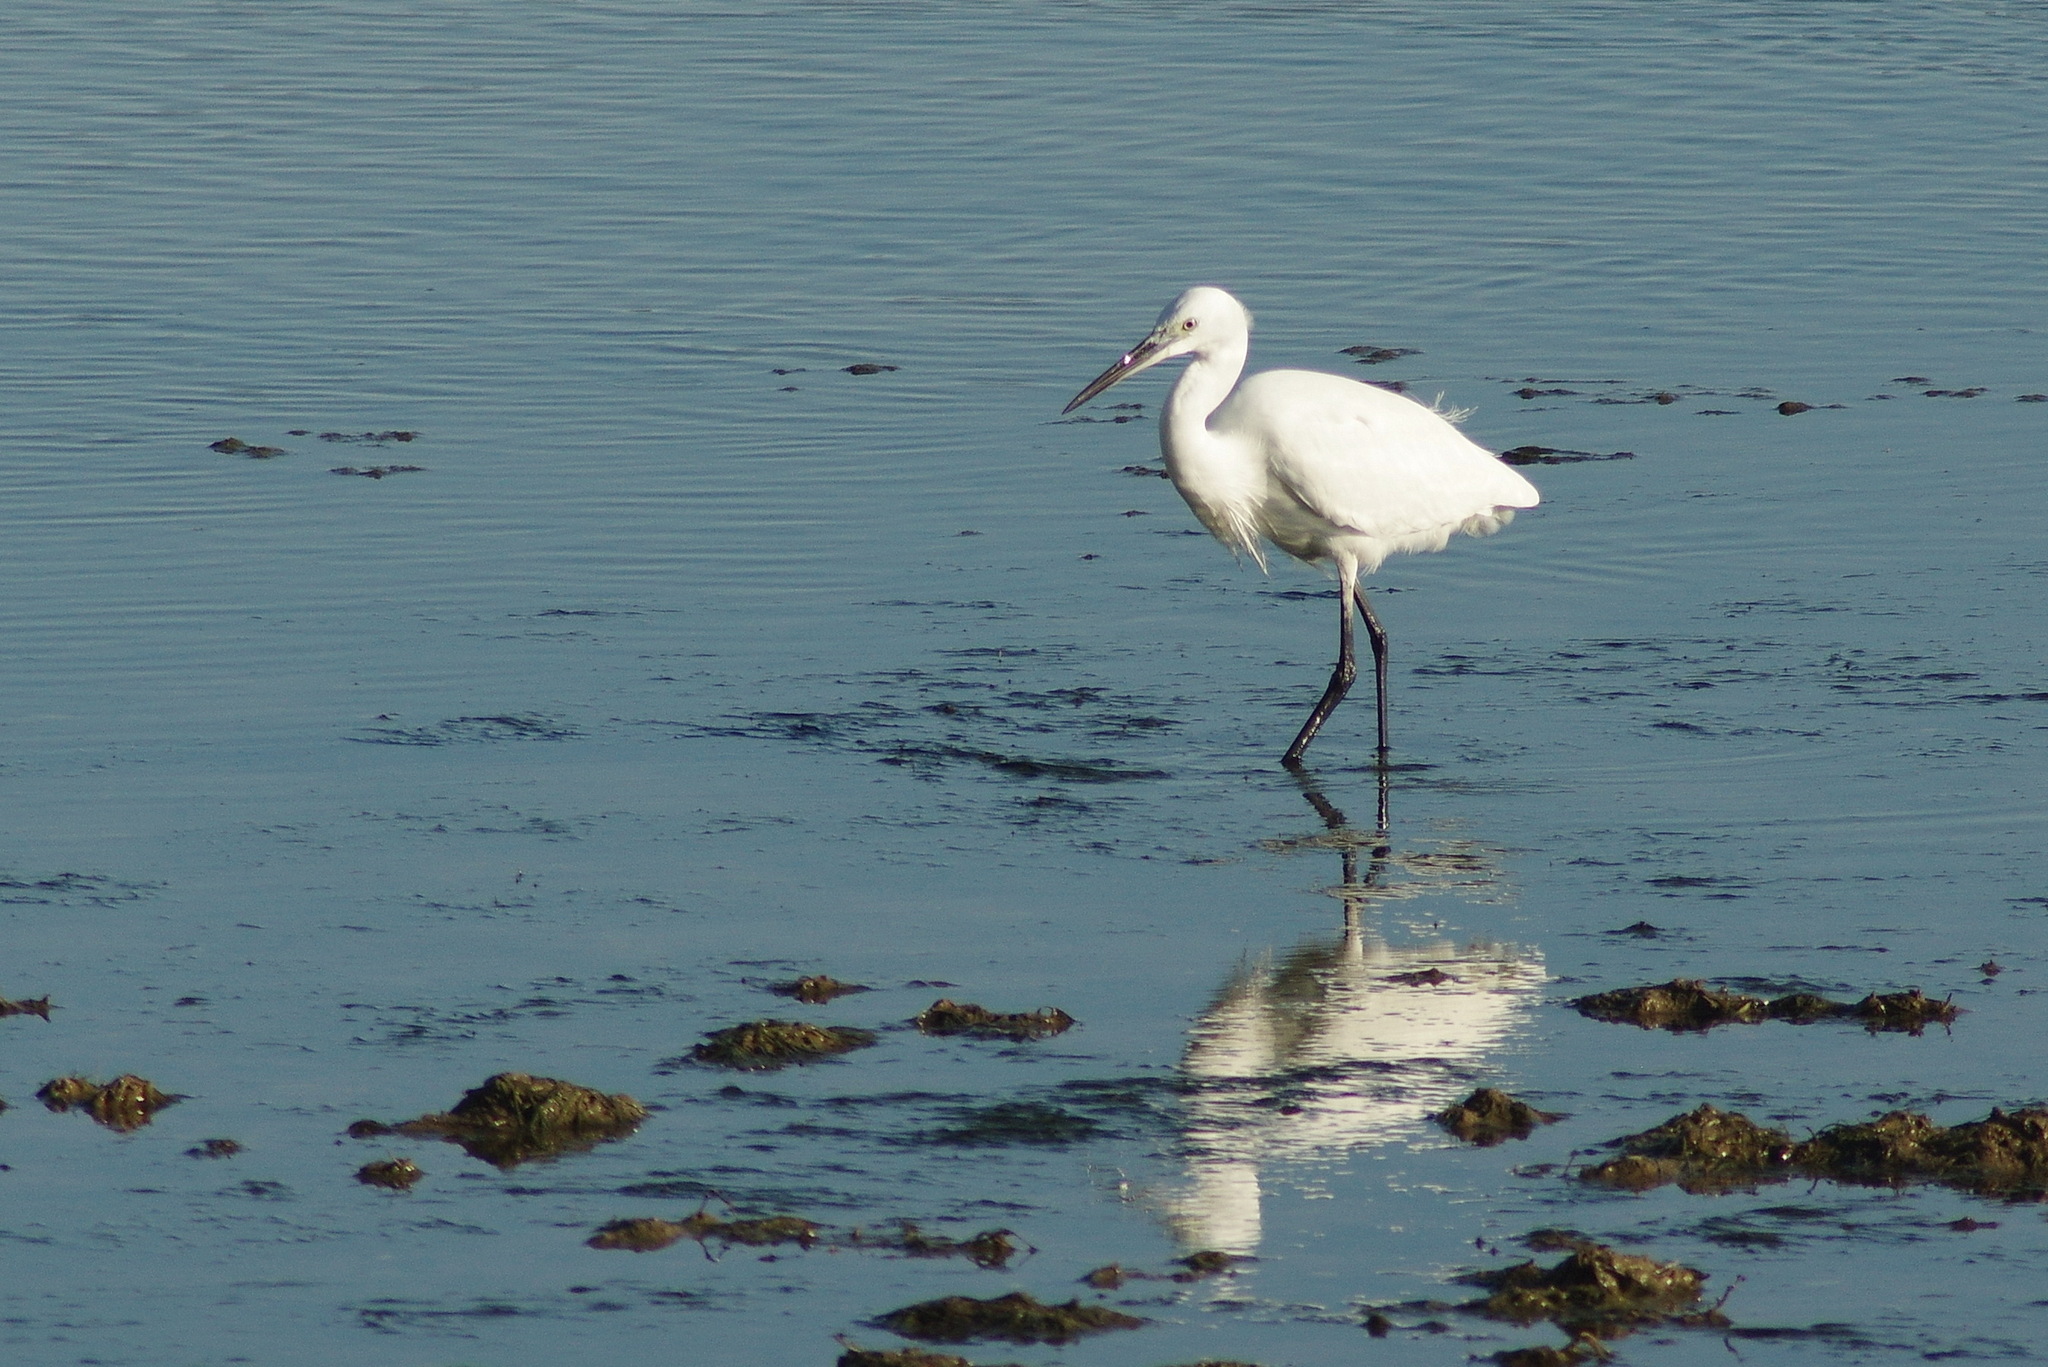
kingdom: Animalia
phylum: Chordata
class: Aves
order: Pelecaniformes
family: Ardeidae
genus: Egretta
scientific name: Egretta garzetta
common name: Little egret
